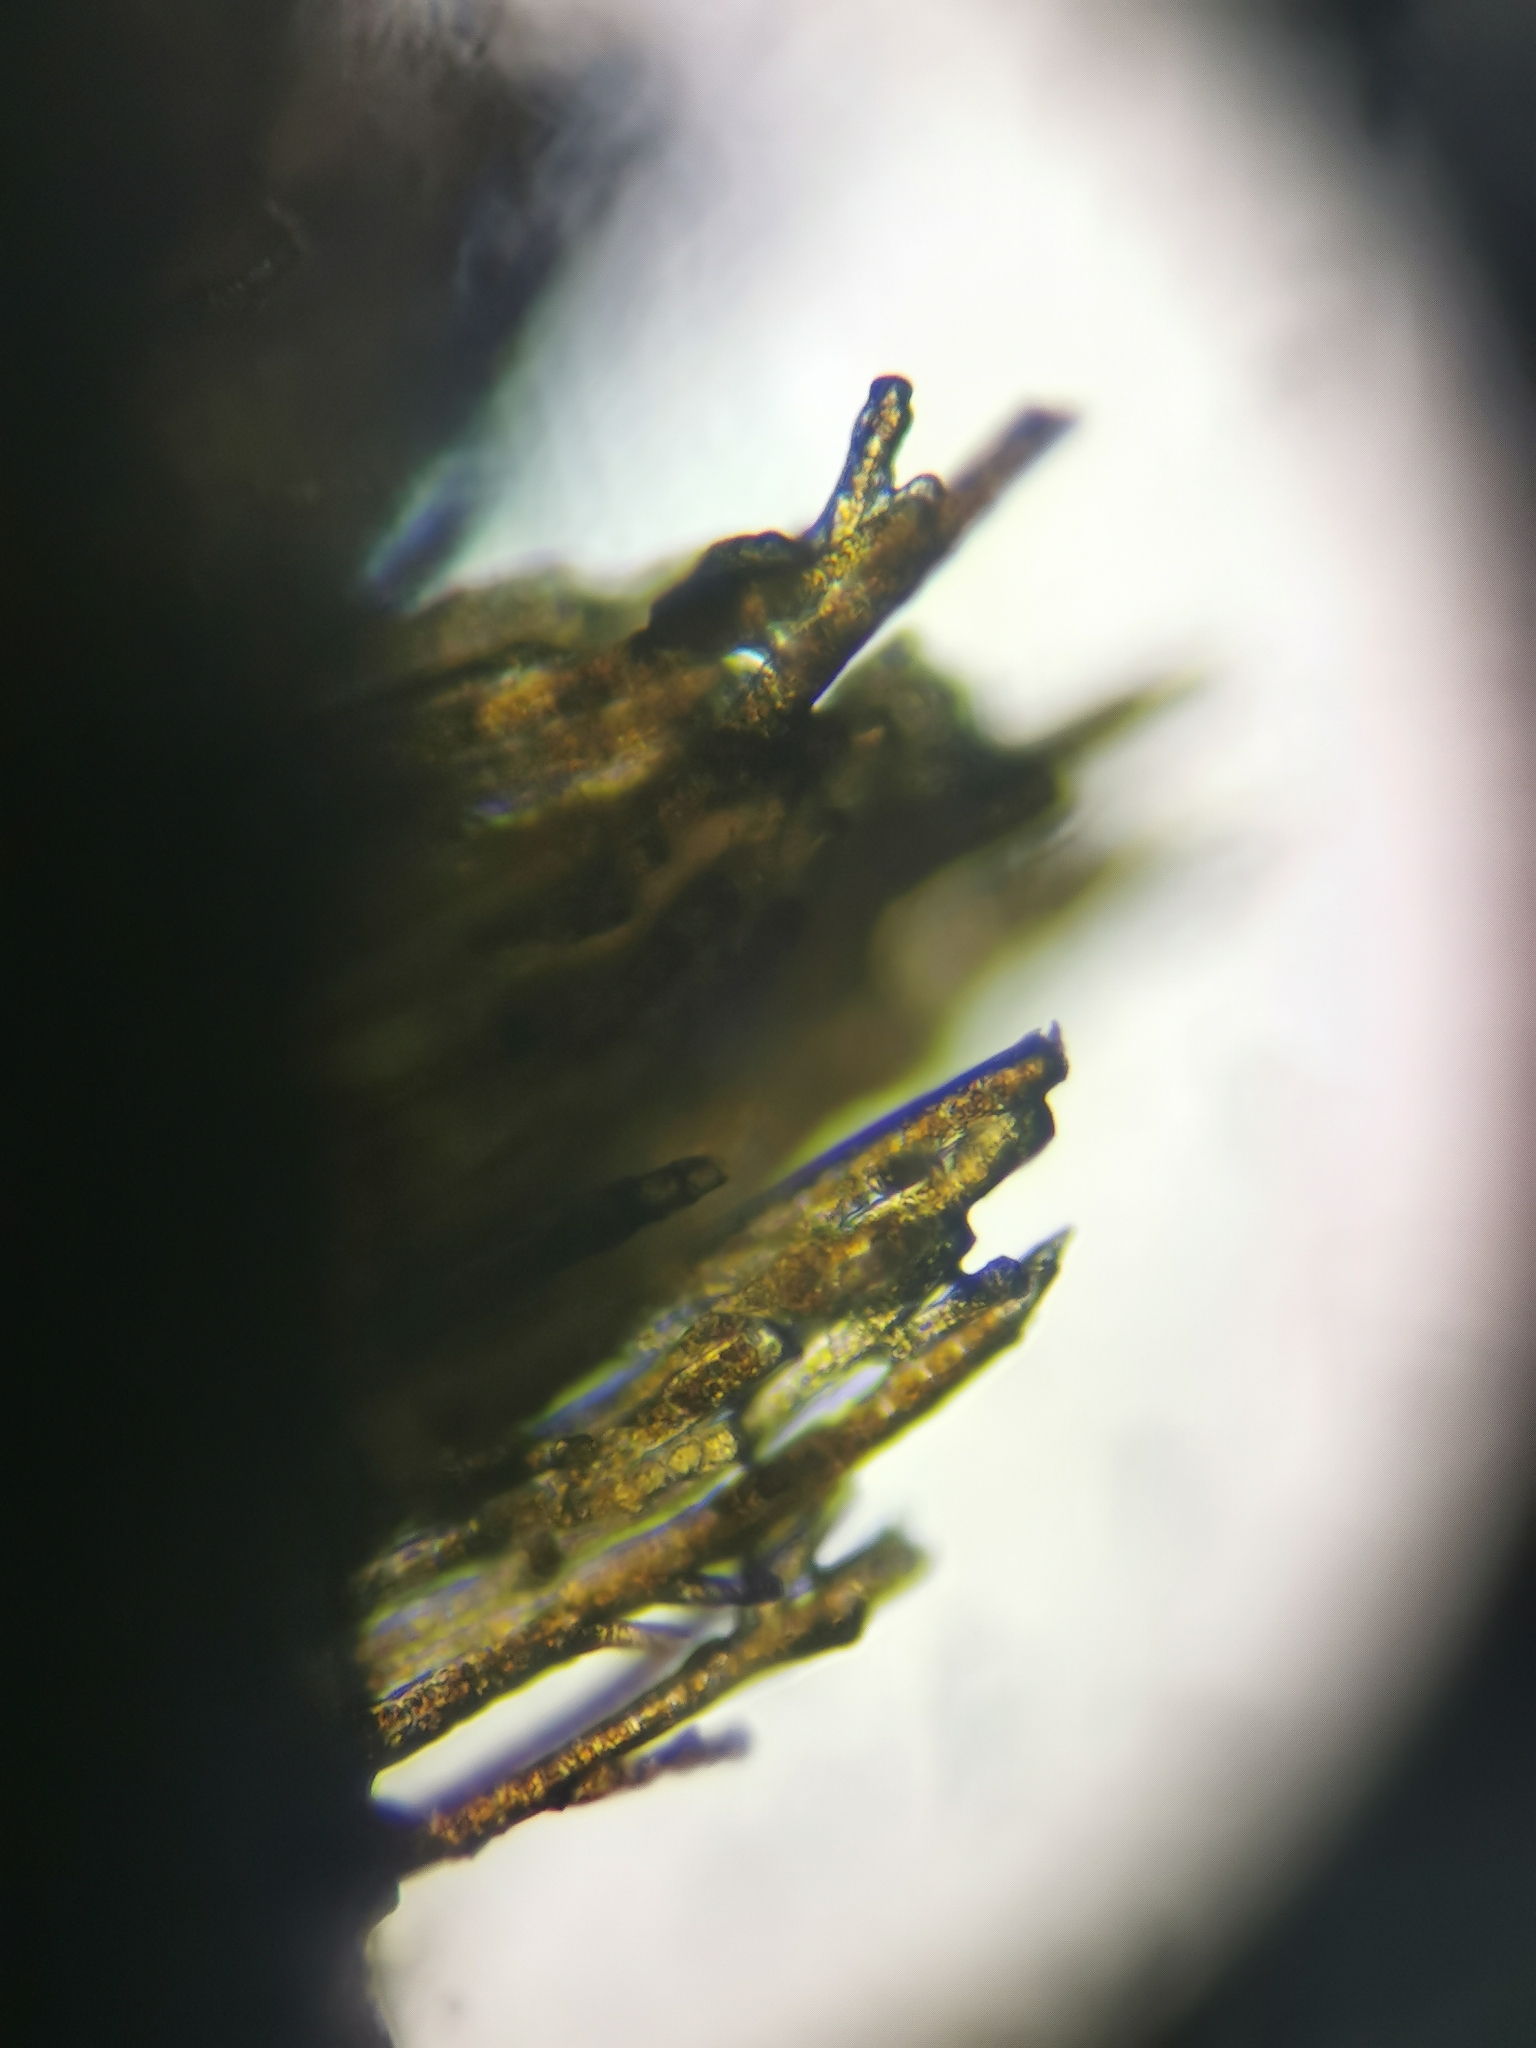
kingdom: Chromista
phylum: Ochrophyta
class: Phaeophyceae
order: Scytothamnales
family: Scytothamnaceae
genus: Scytothamnus
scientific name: Scytothamnus australis
